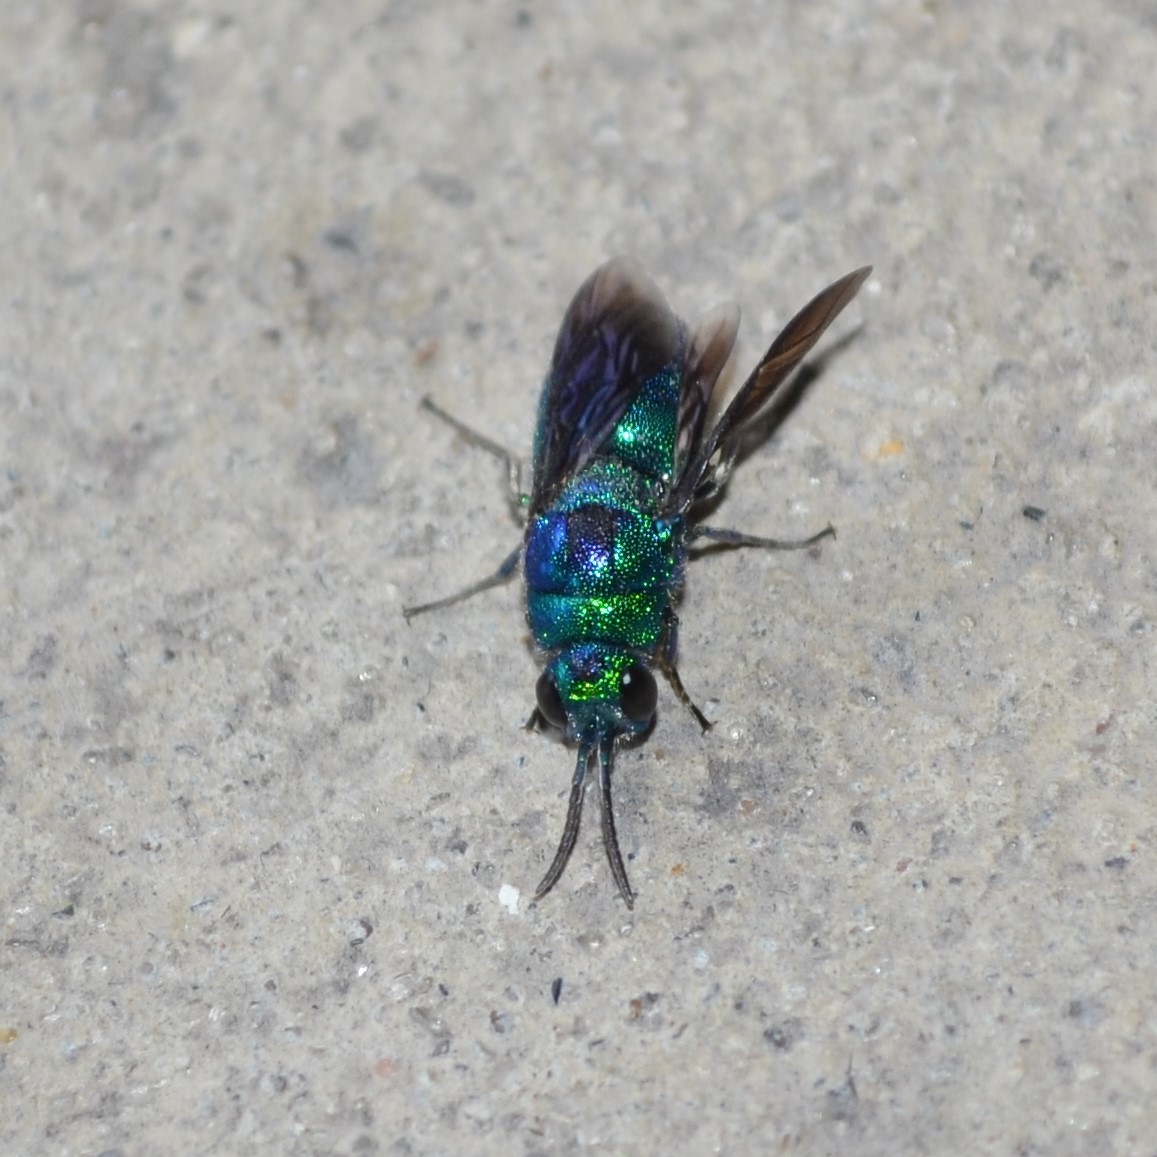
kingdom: Animalia
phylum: Arthropoda
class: Insecta
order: Hymenoptera
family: Chrysididae
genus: Chrysis
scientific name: Chrysis angolensis
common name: Cuckoo wasp
